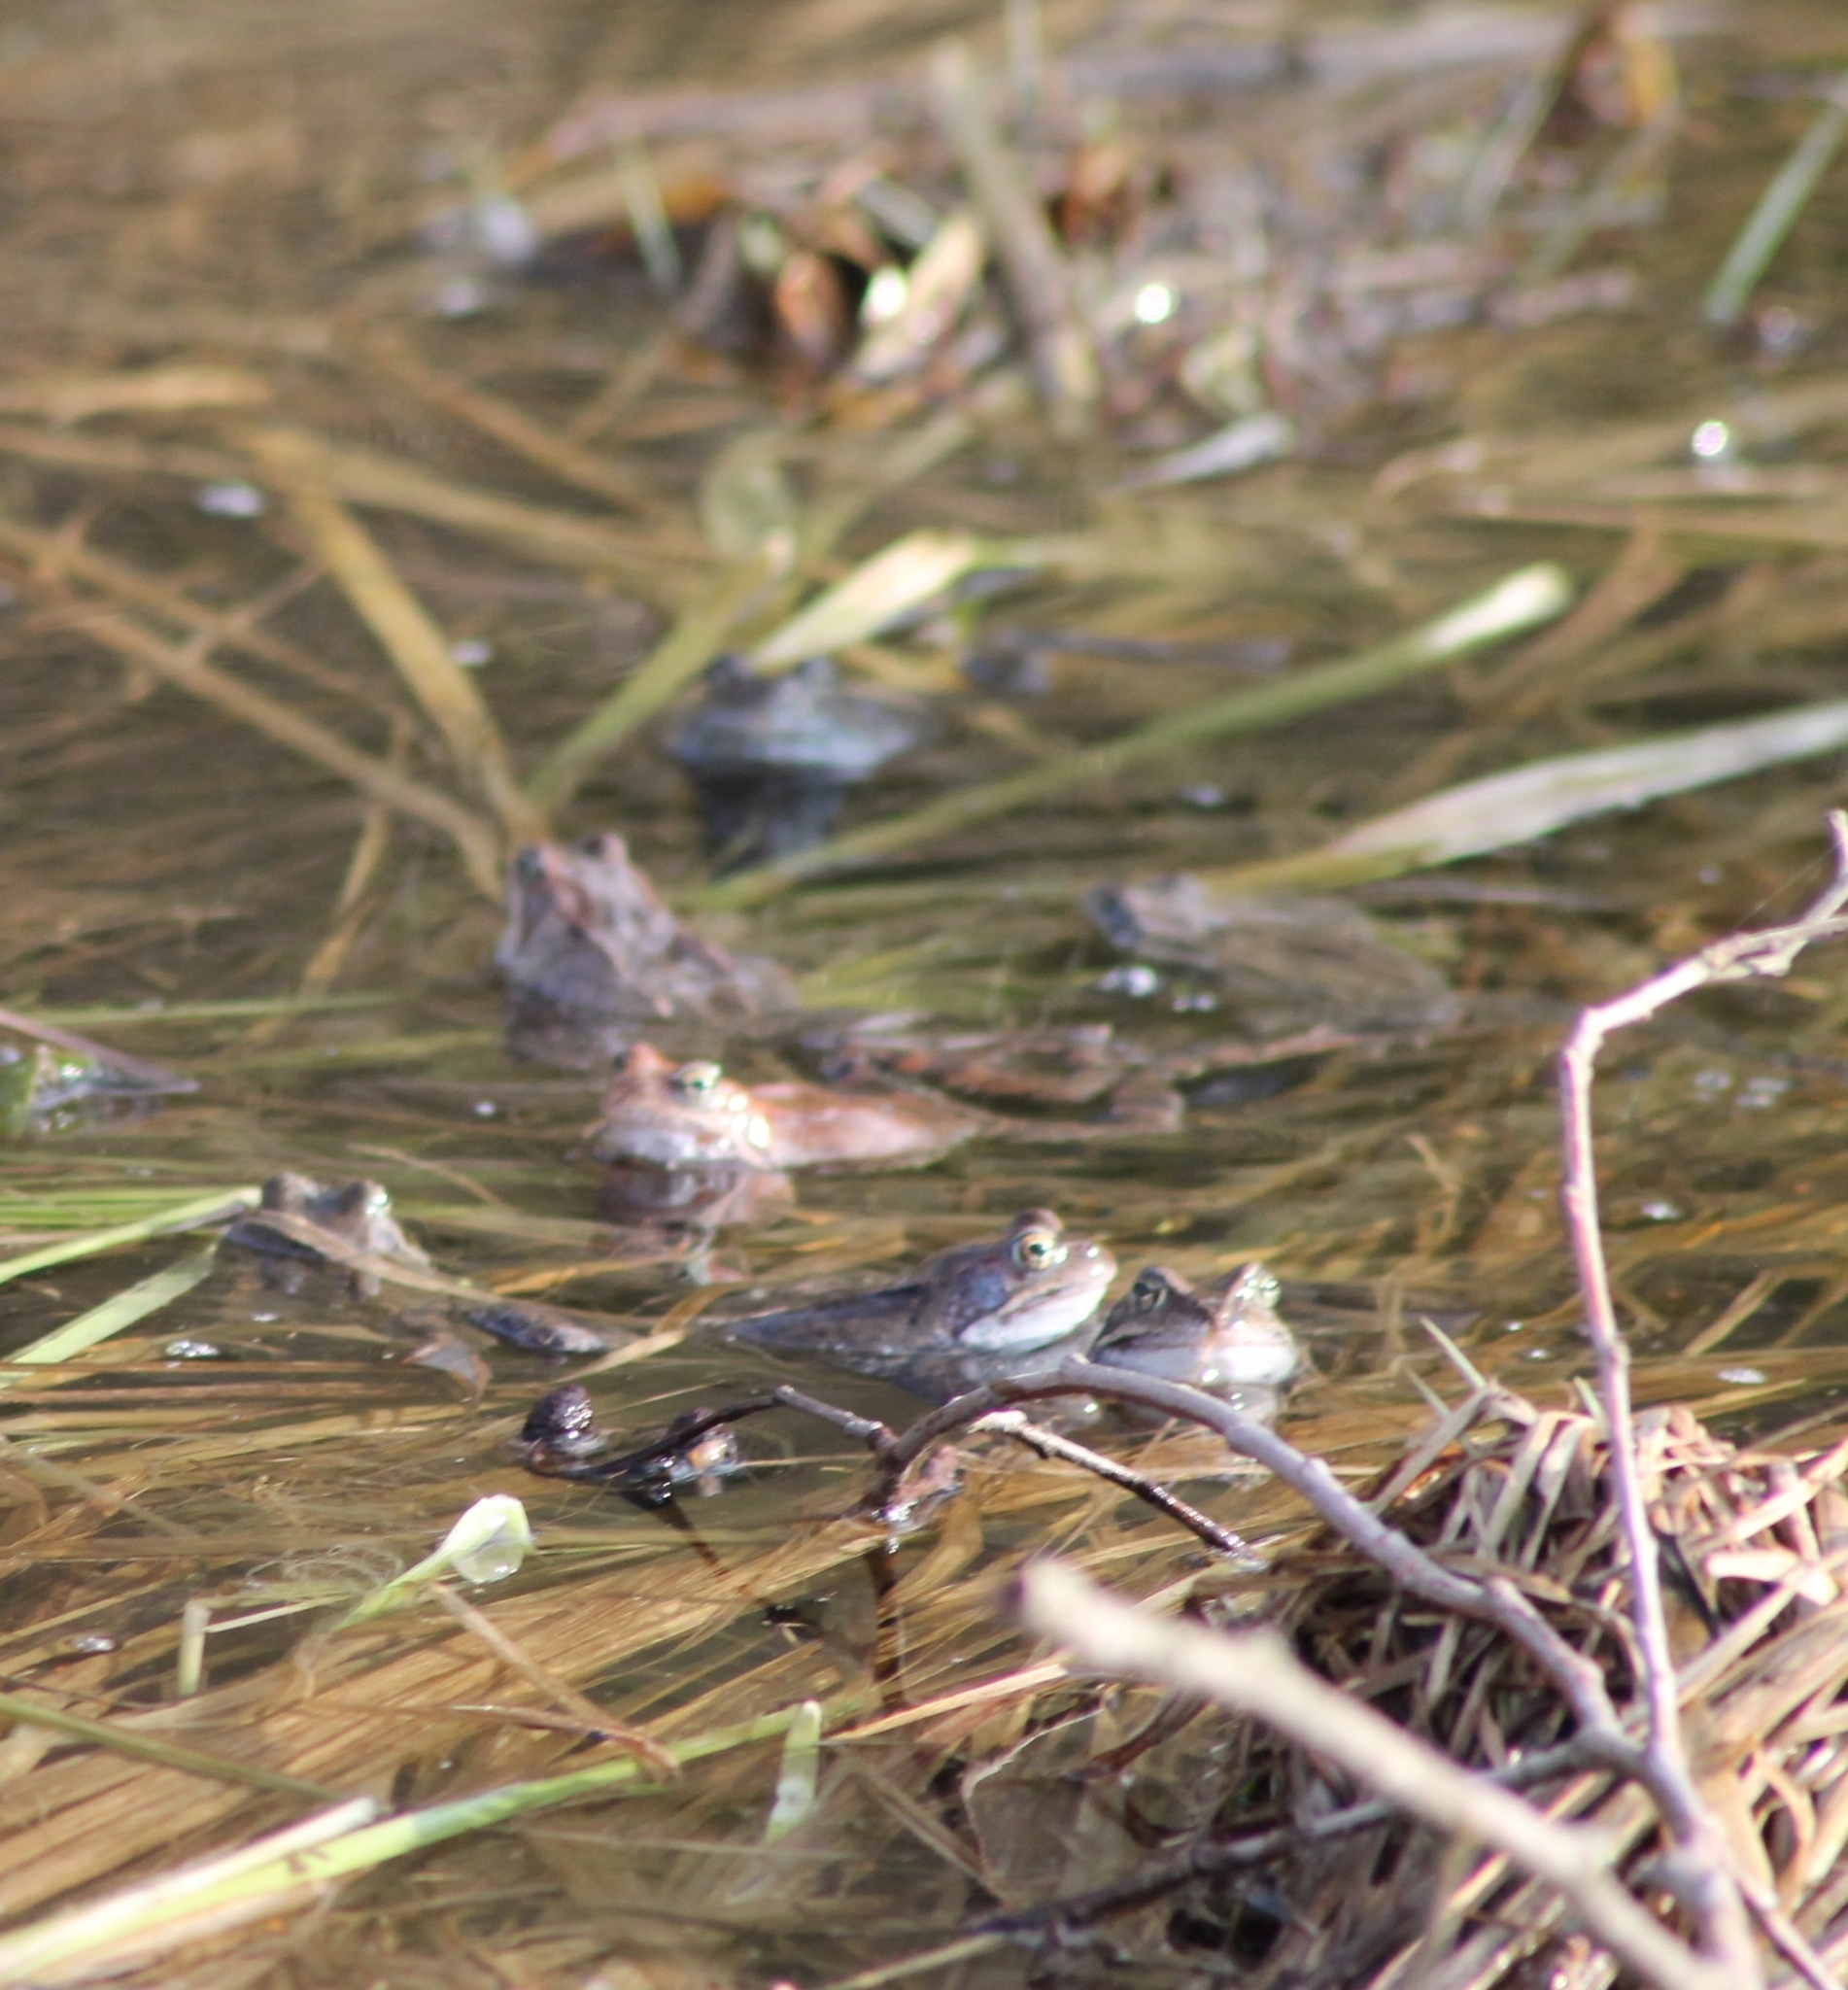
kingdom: Animalia
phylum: Chordata
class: Amphibia
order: Anura
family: Ranidae
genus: Rana
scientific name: Rana temporaria
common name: Common frog
